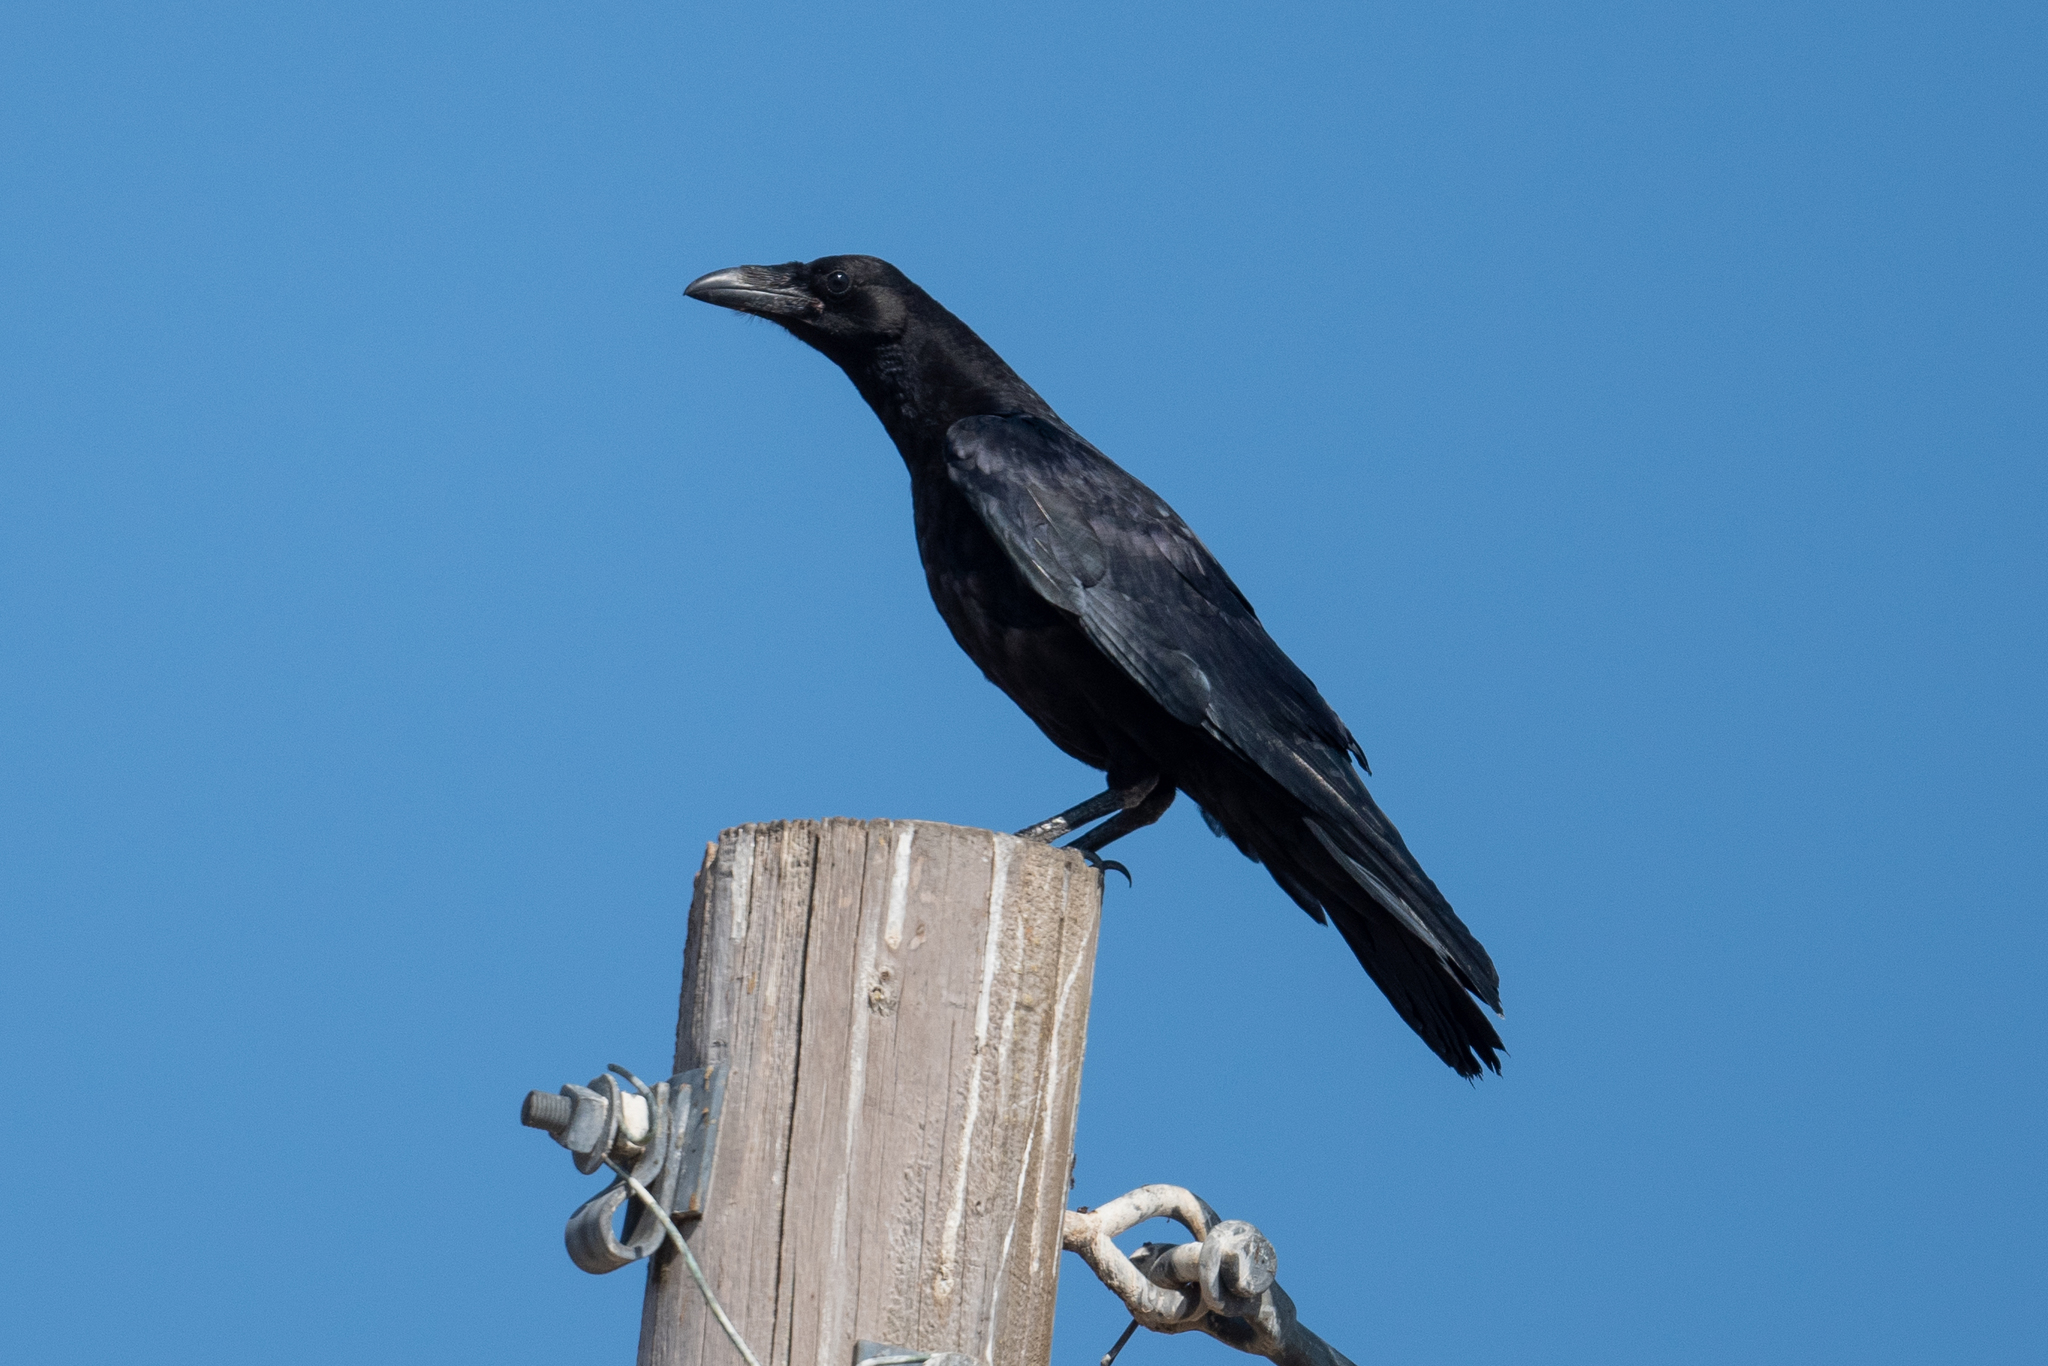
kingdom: Animalia
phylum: Chordata
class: Aves
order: Passeriformes
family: Corvidae
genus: Corvus
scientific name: Corvus corax
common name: Common raven
